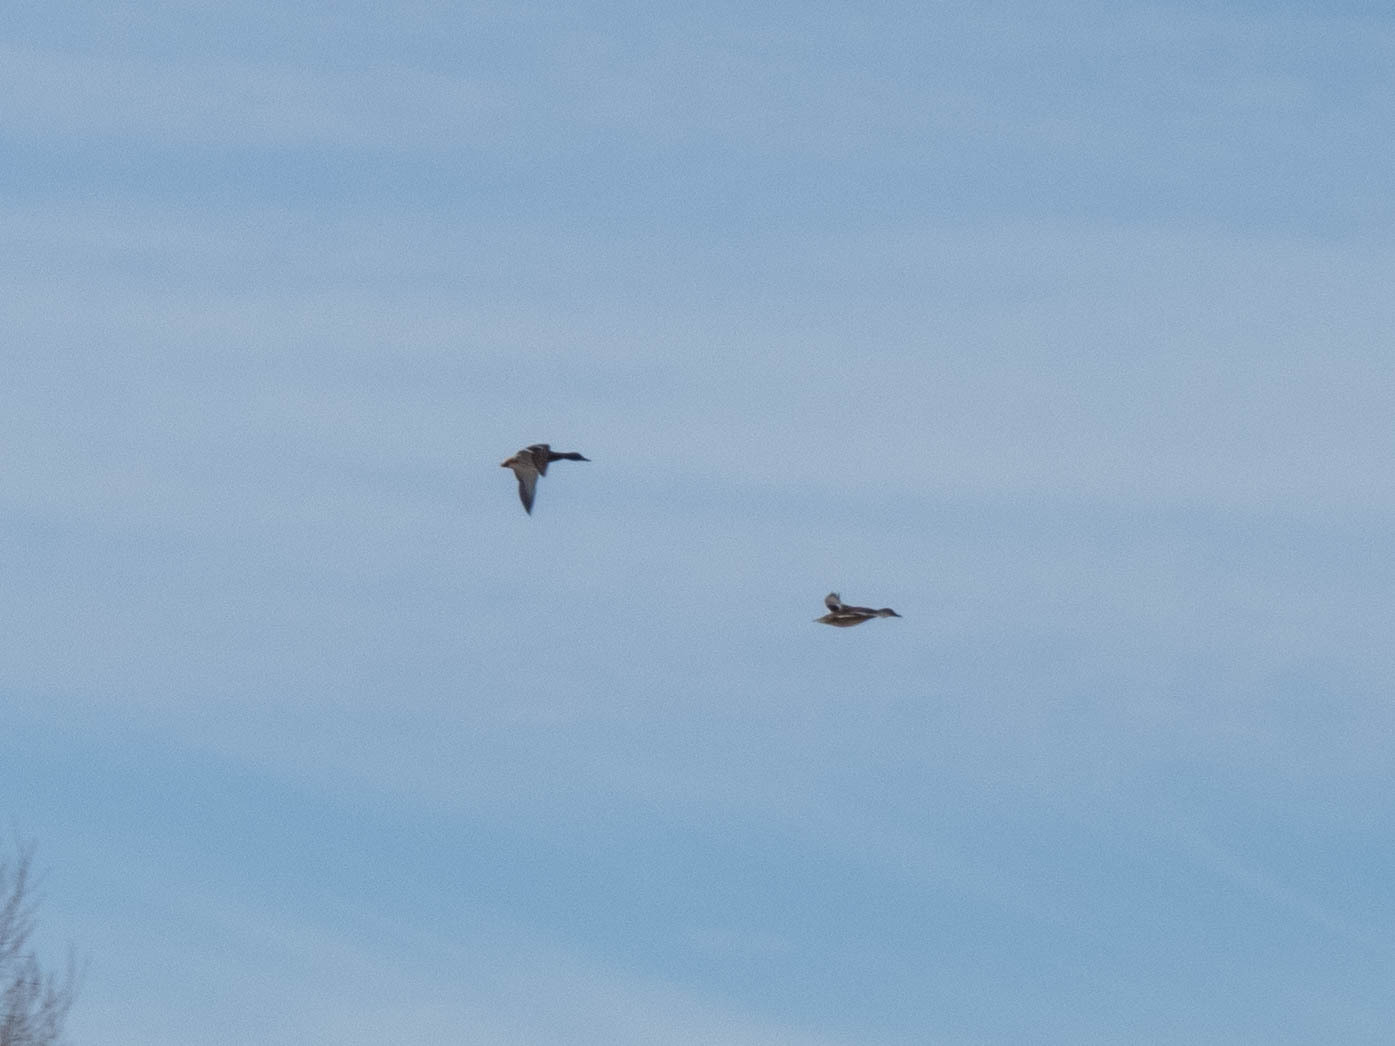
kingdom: Animalia
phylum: Chordata
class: Aves
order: Anseriformes
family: Anatidae
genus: Anas
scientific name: Anas platyrhynchos
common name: Mallard
